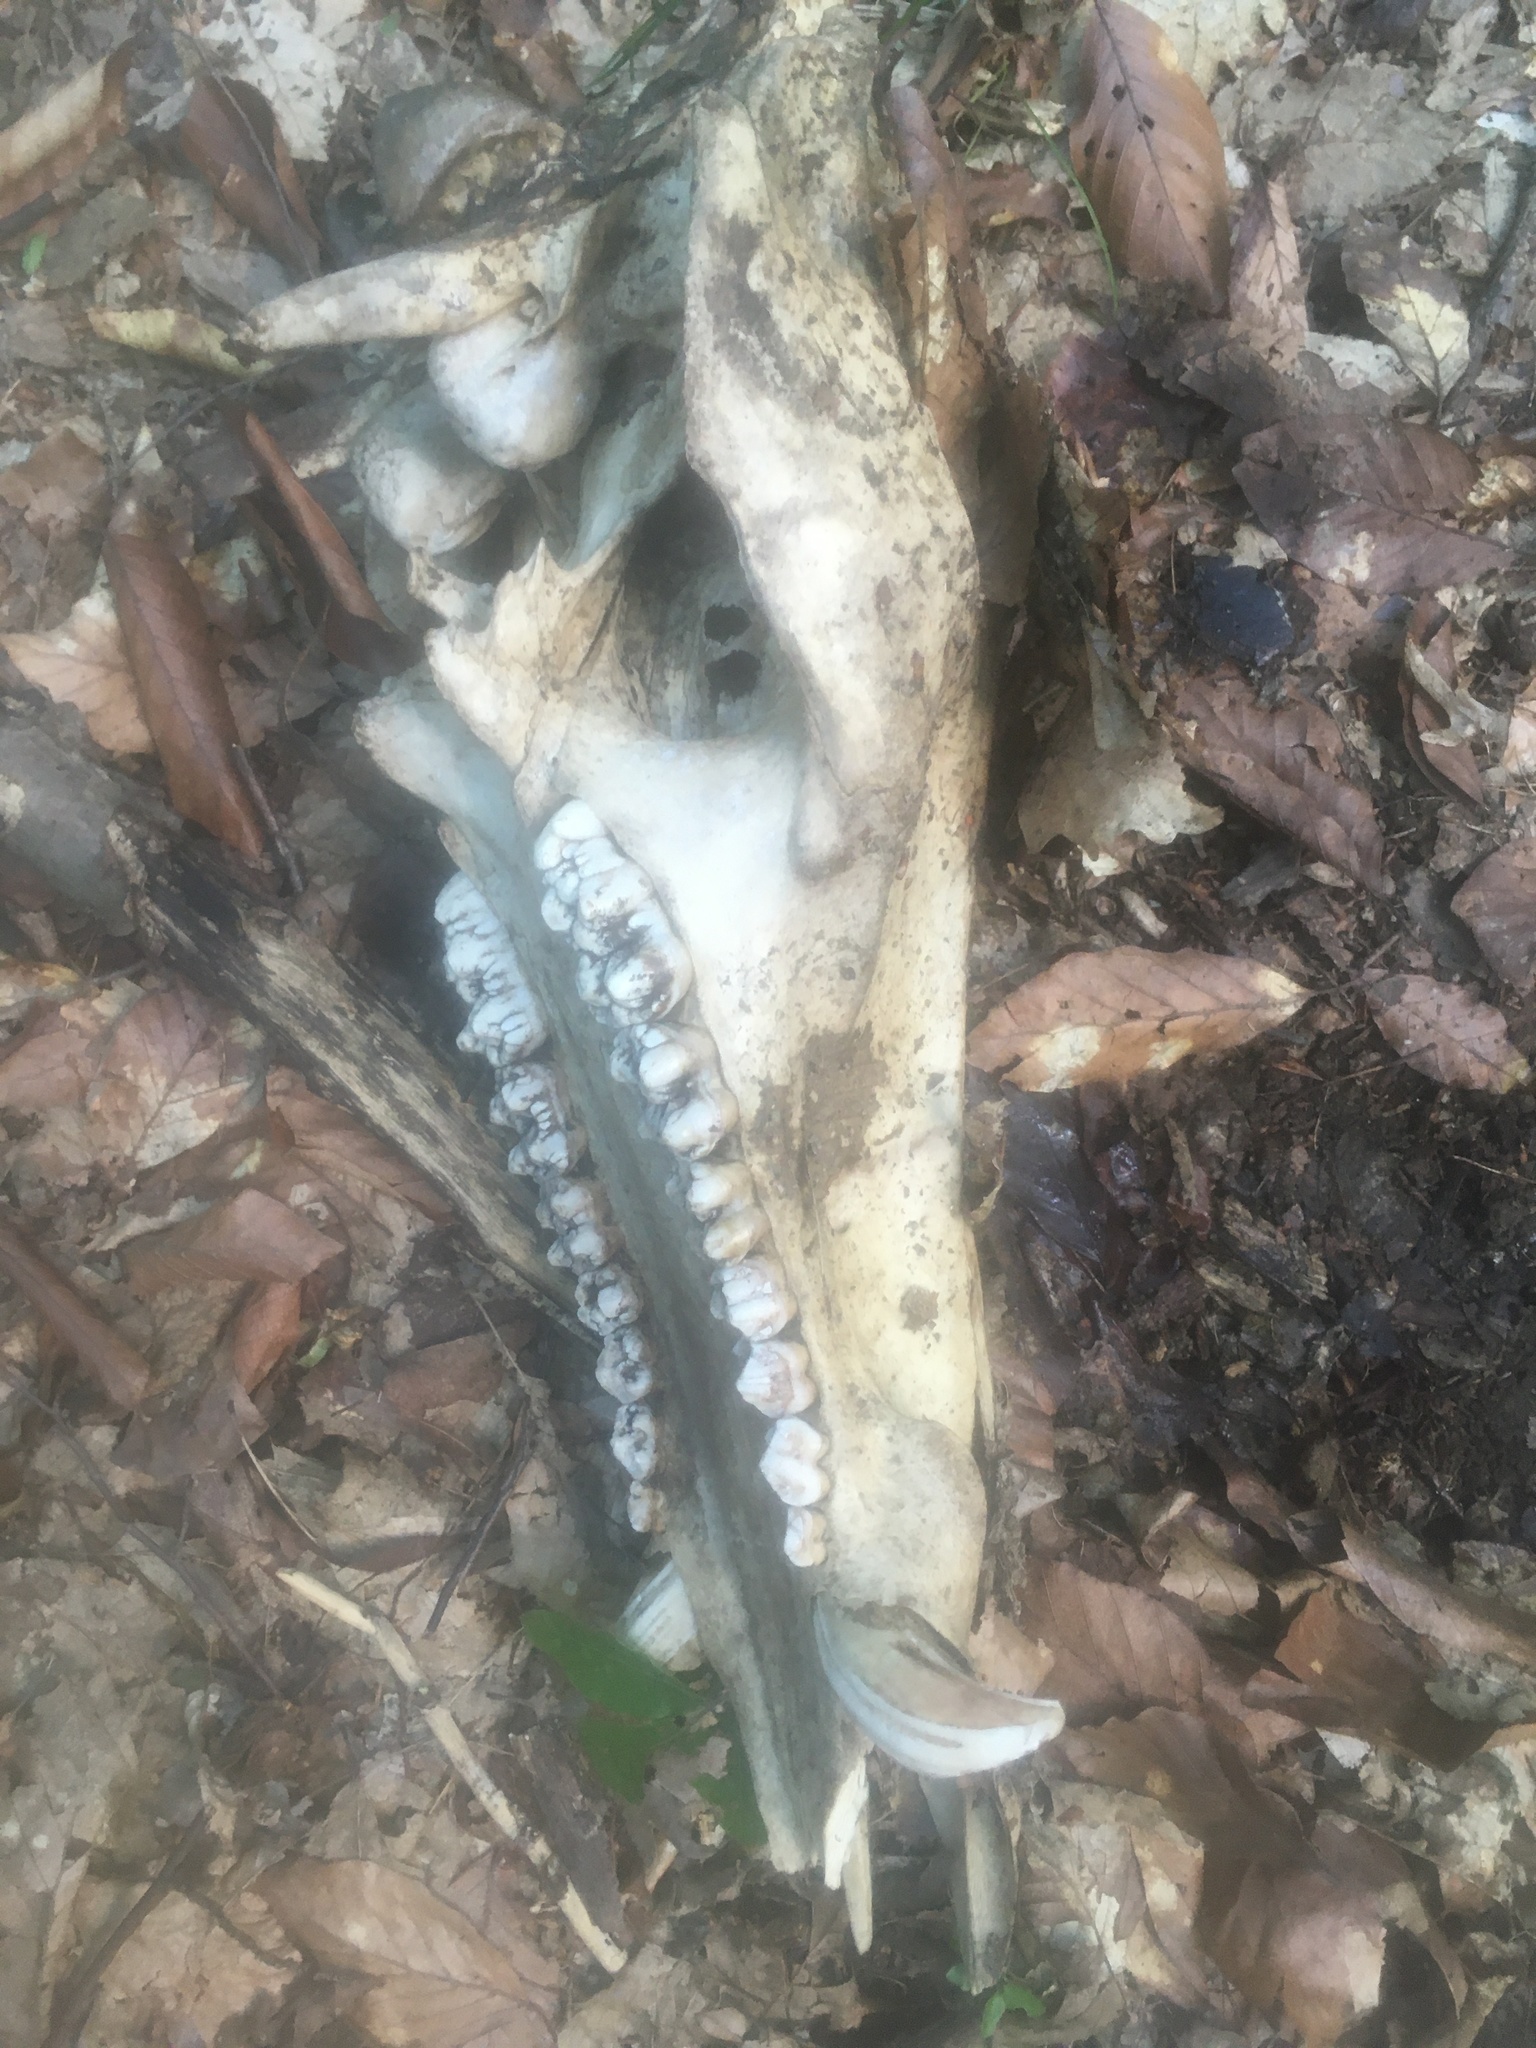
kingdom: Animalia
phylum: Chordata
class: Mammalia
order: Artiodactyla
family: Suidae
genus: Sus
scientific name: Sus scrofa
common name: Wild boar
